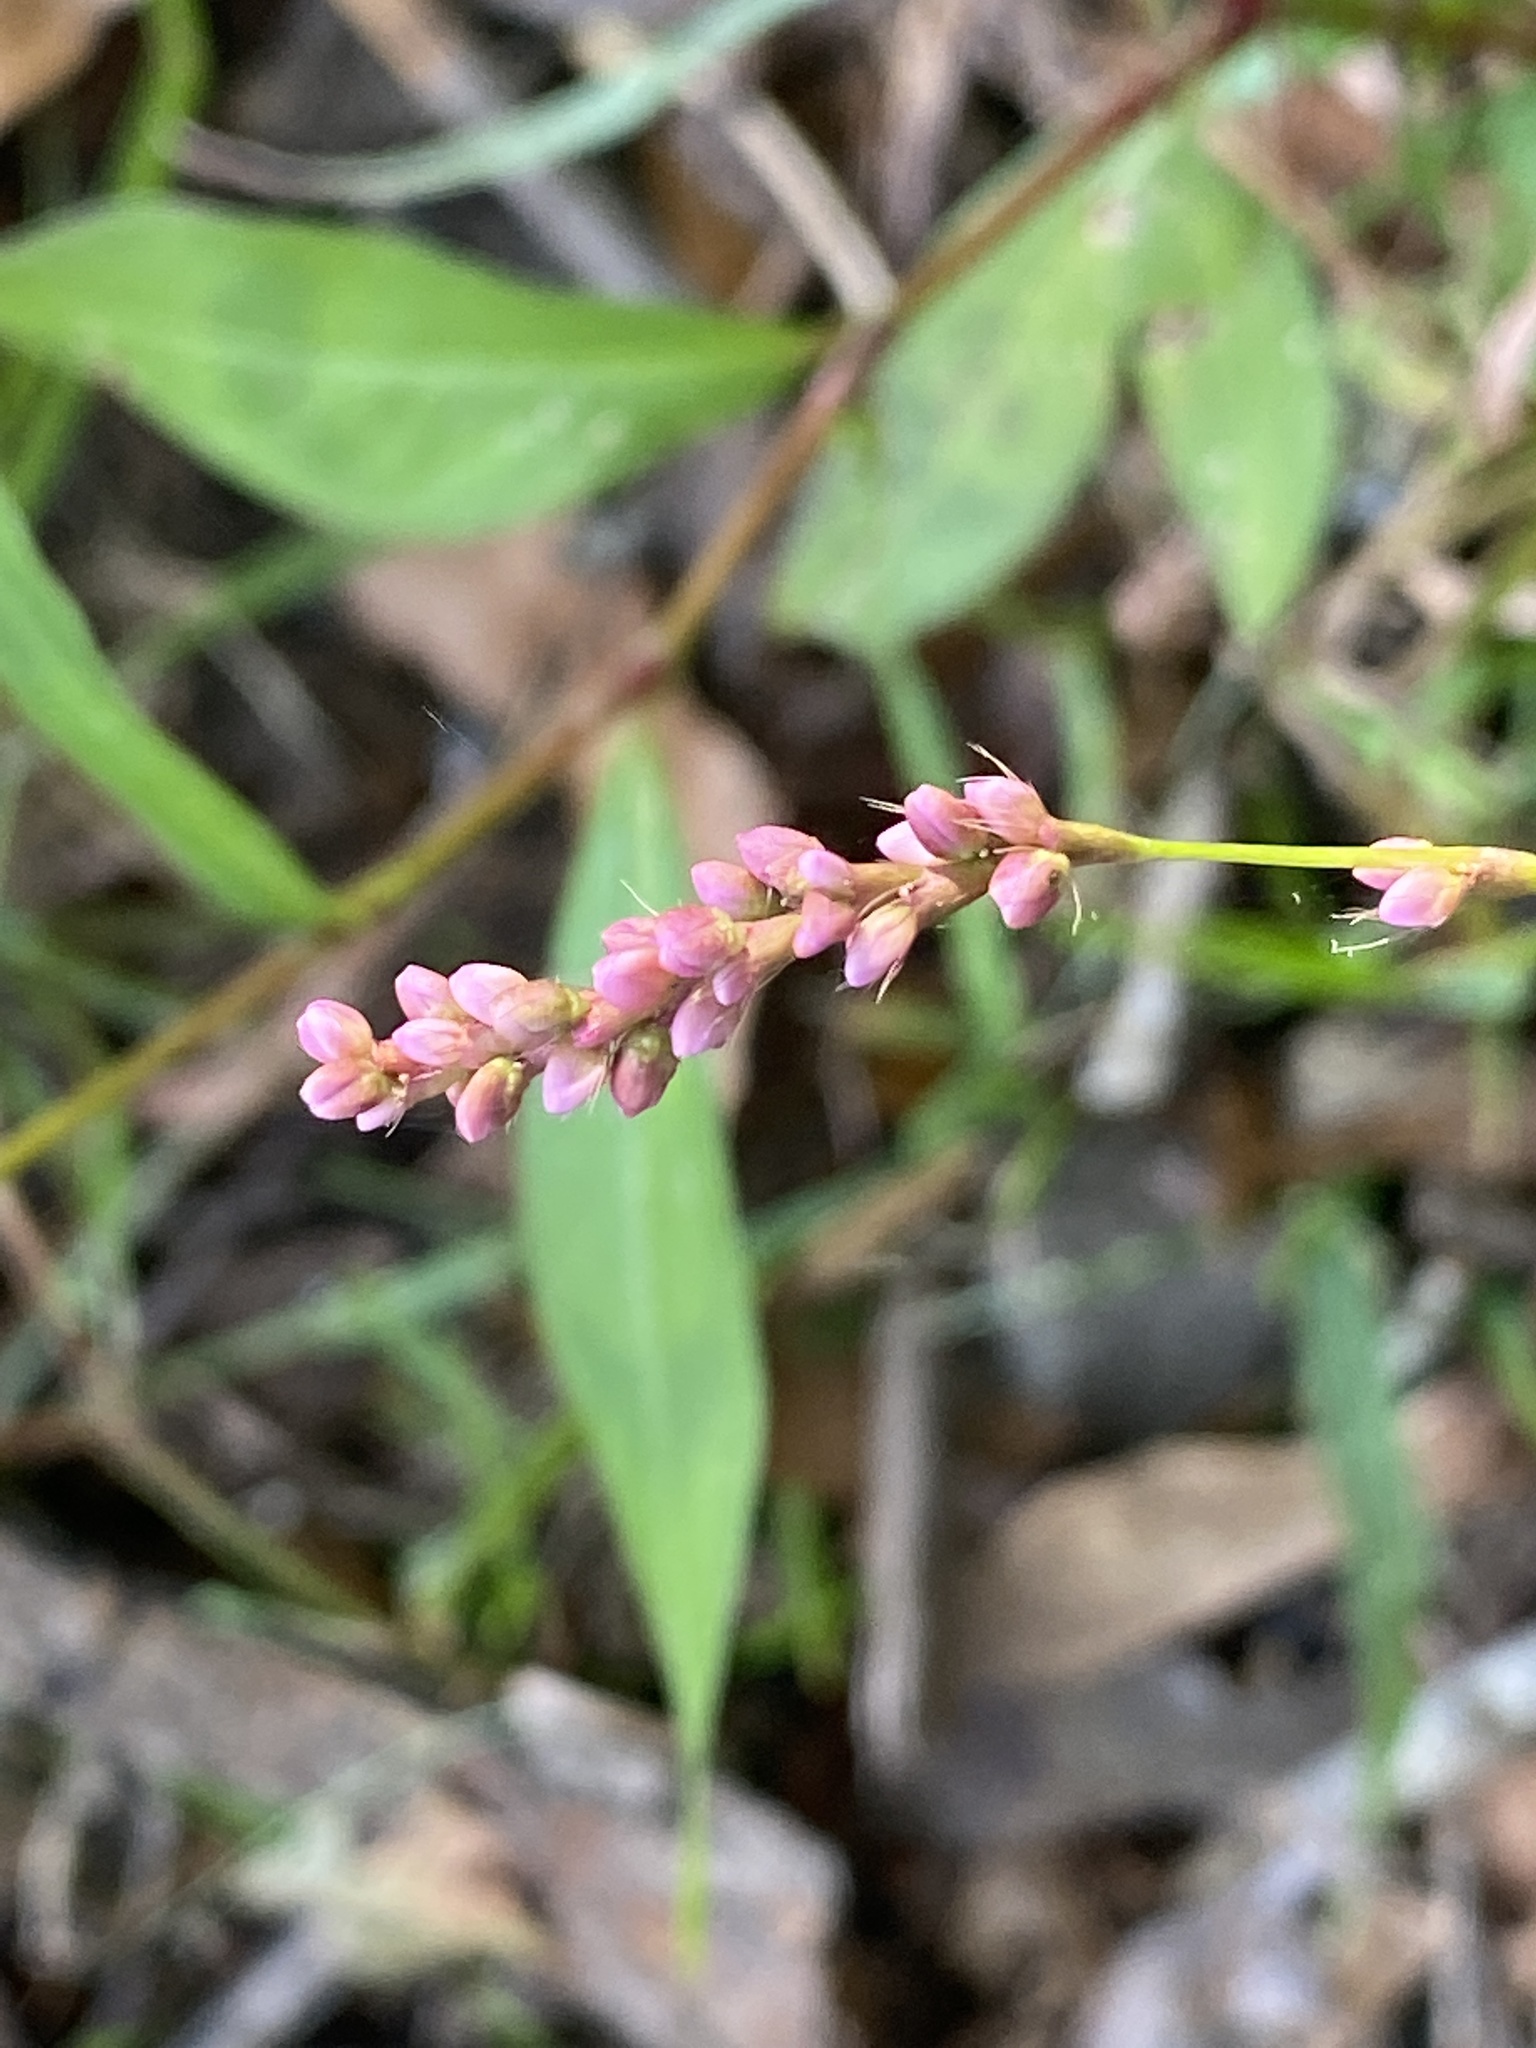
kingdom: Plantae
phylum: Tracheophyta
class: Magnoliopsida
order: Caryophyllales
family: Polygonaceae
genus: Persicaria
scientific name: Persicaria longiseta
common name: Bristly lady's-thumb
